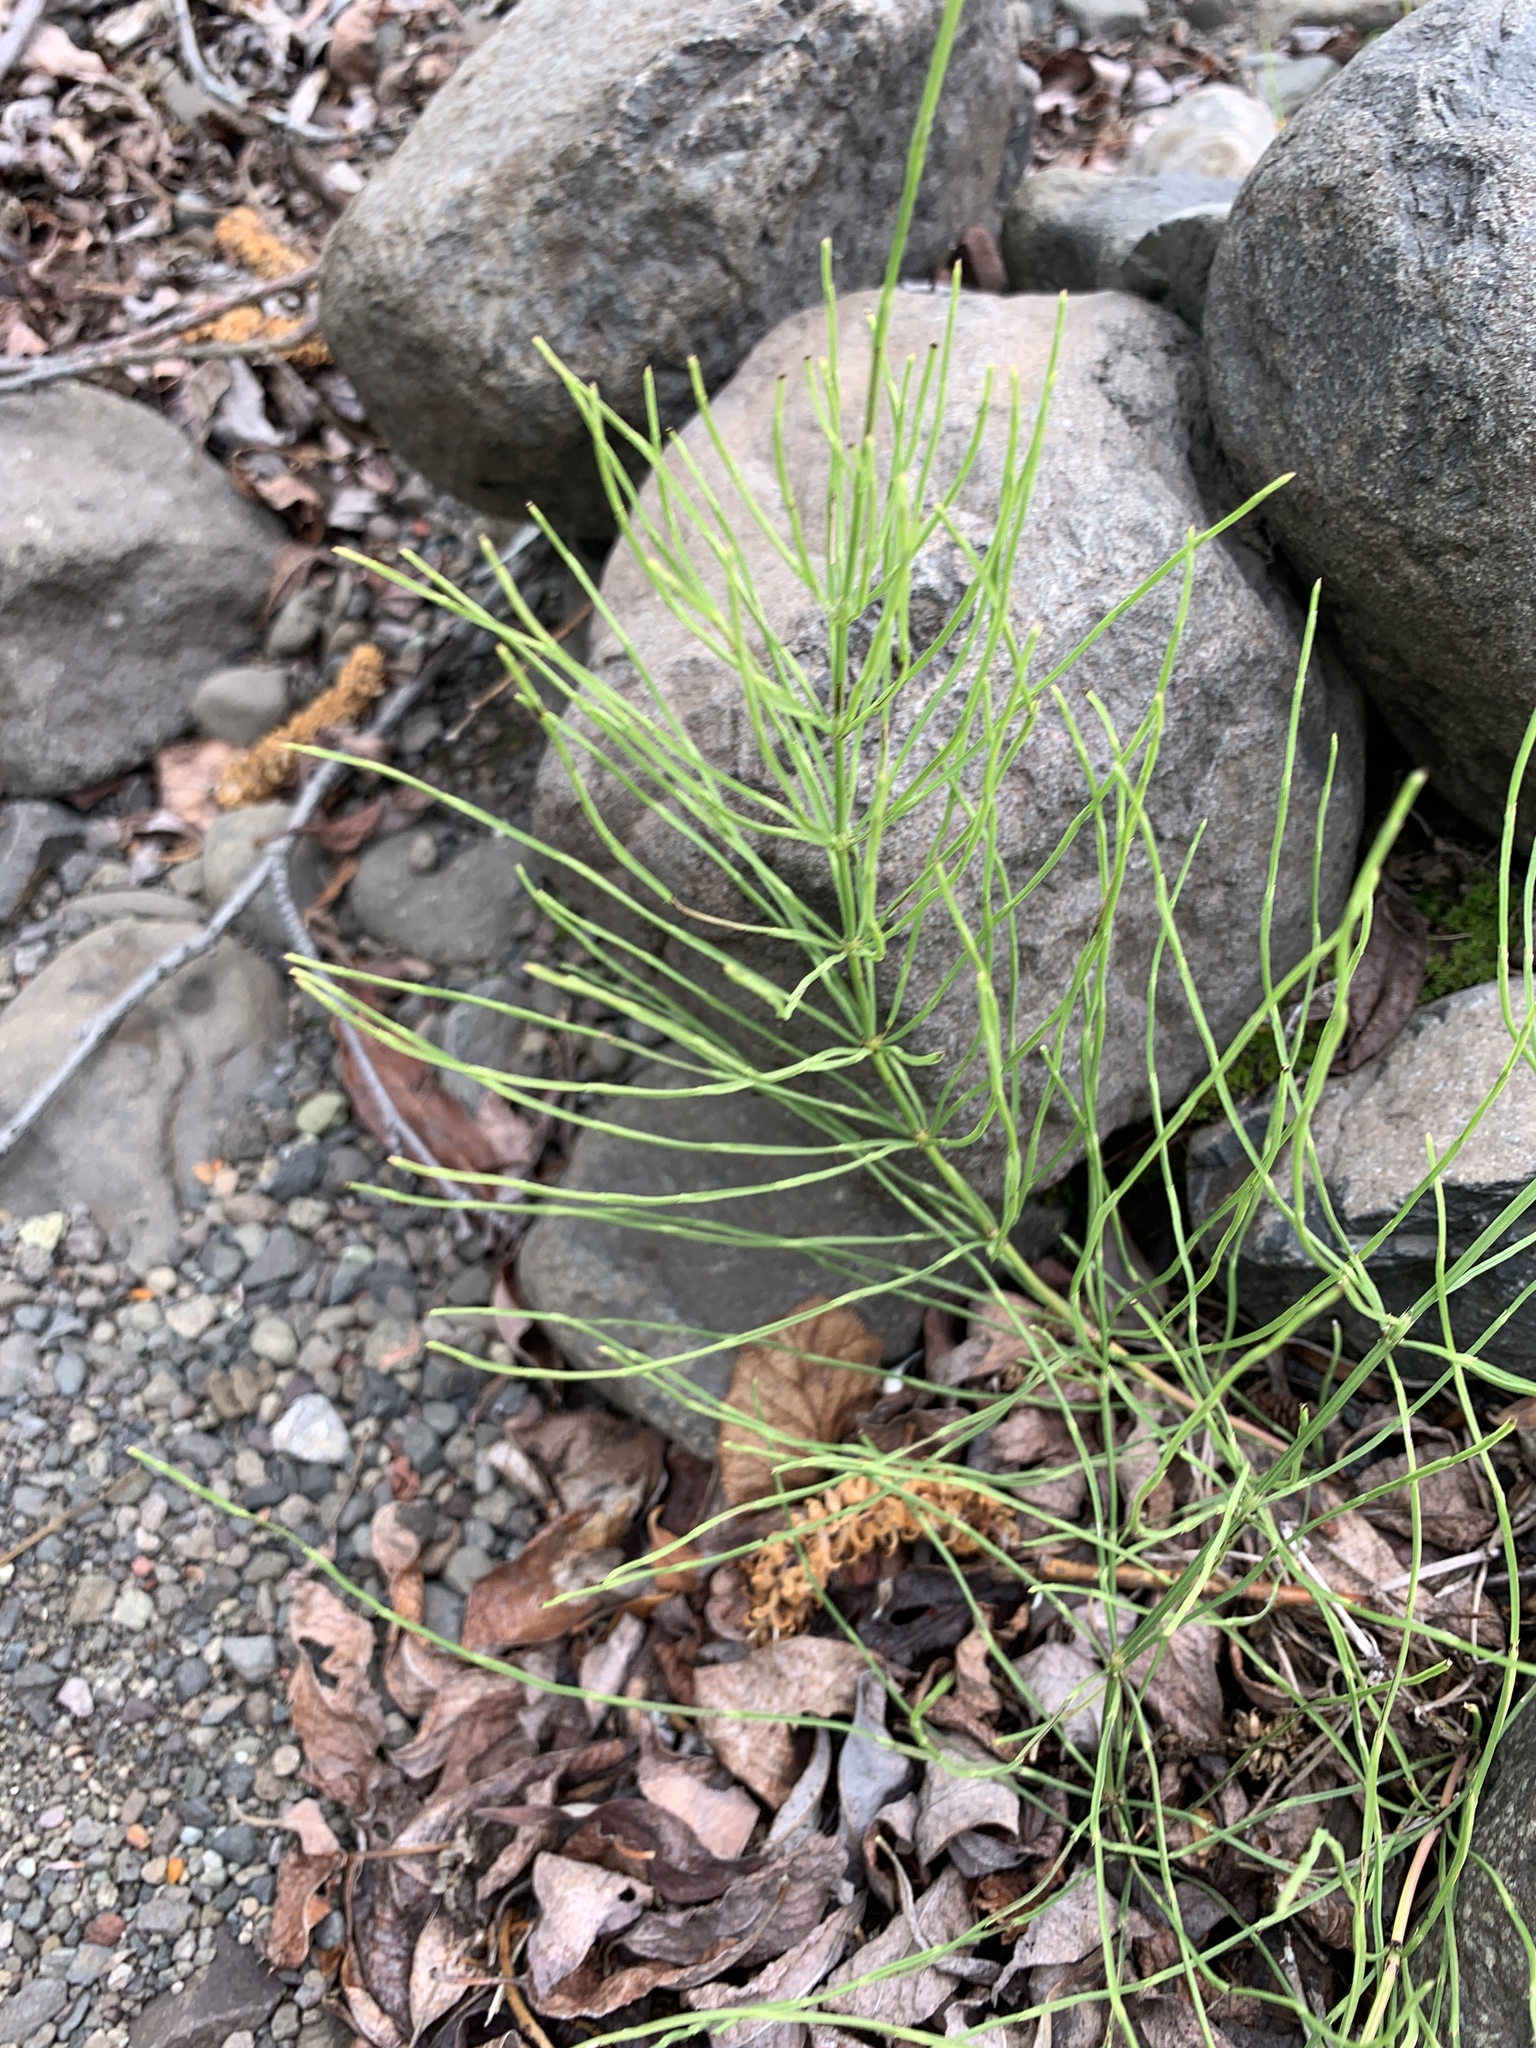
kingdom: Plantae
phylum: Tracheophyta
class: Polypodiopsida
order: Equisetales
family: Equisetaceae
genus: Equisetum
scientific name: Equisetum arvense
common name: Field horsetail
